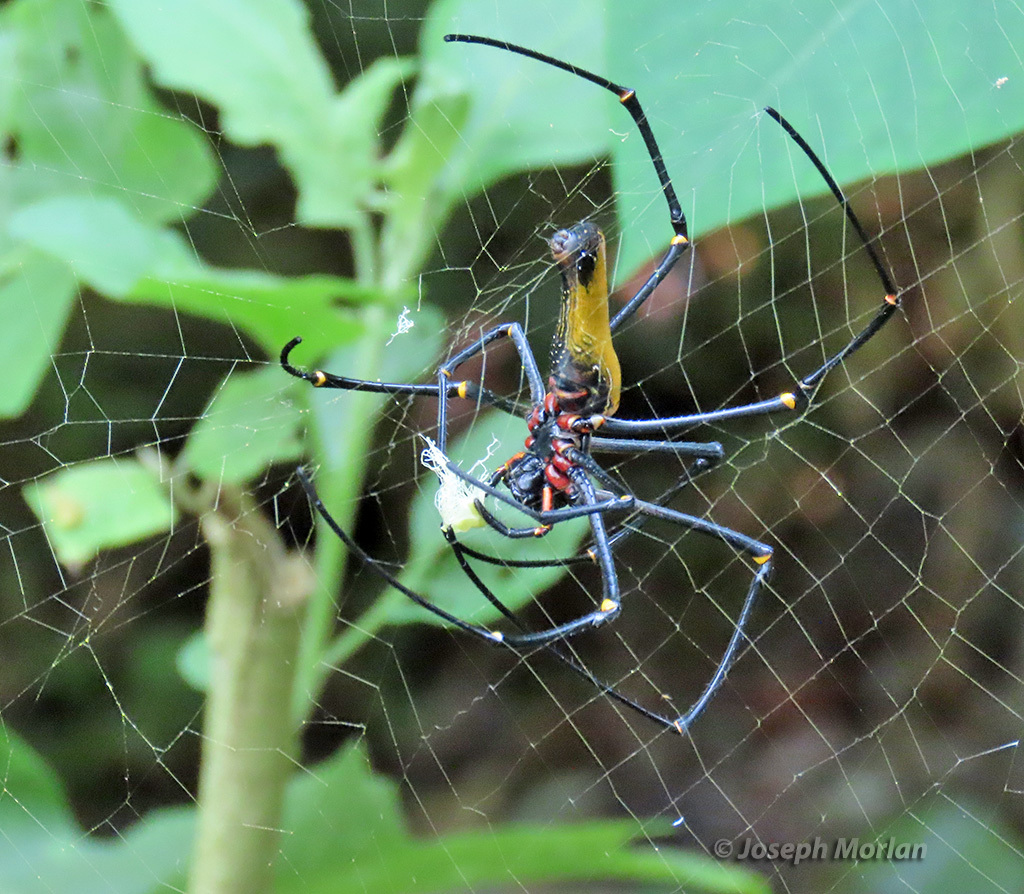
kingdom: Animalia
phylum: Arthropoda
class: Arachnida
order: Araneae
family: Araneidae
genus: Nephila
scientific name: Nephila pilipes
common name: Giant golden orb weaver
